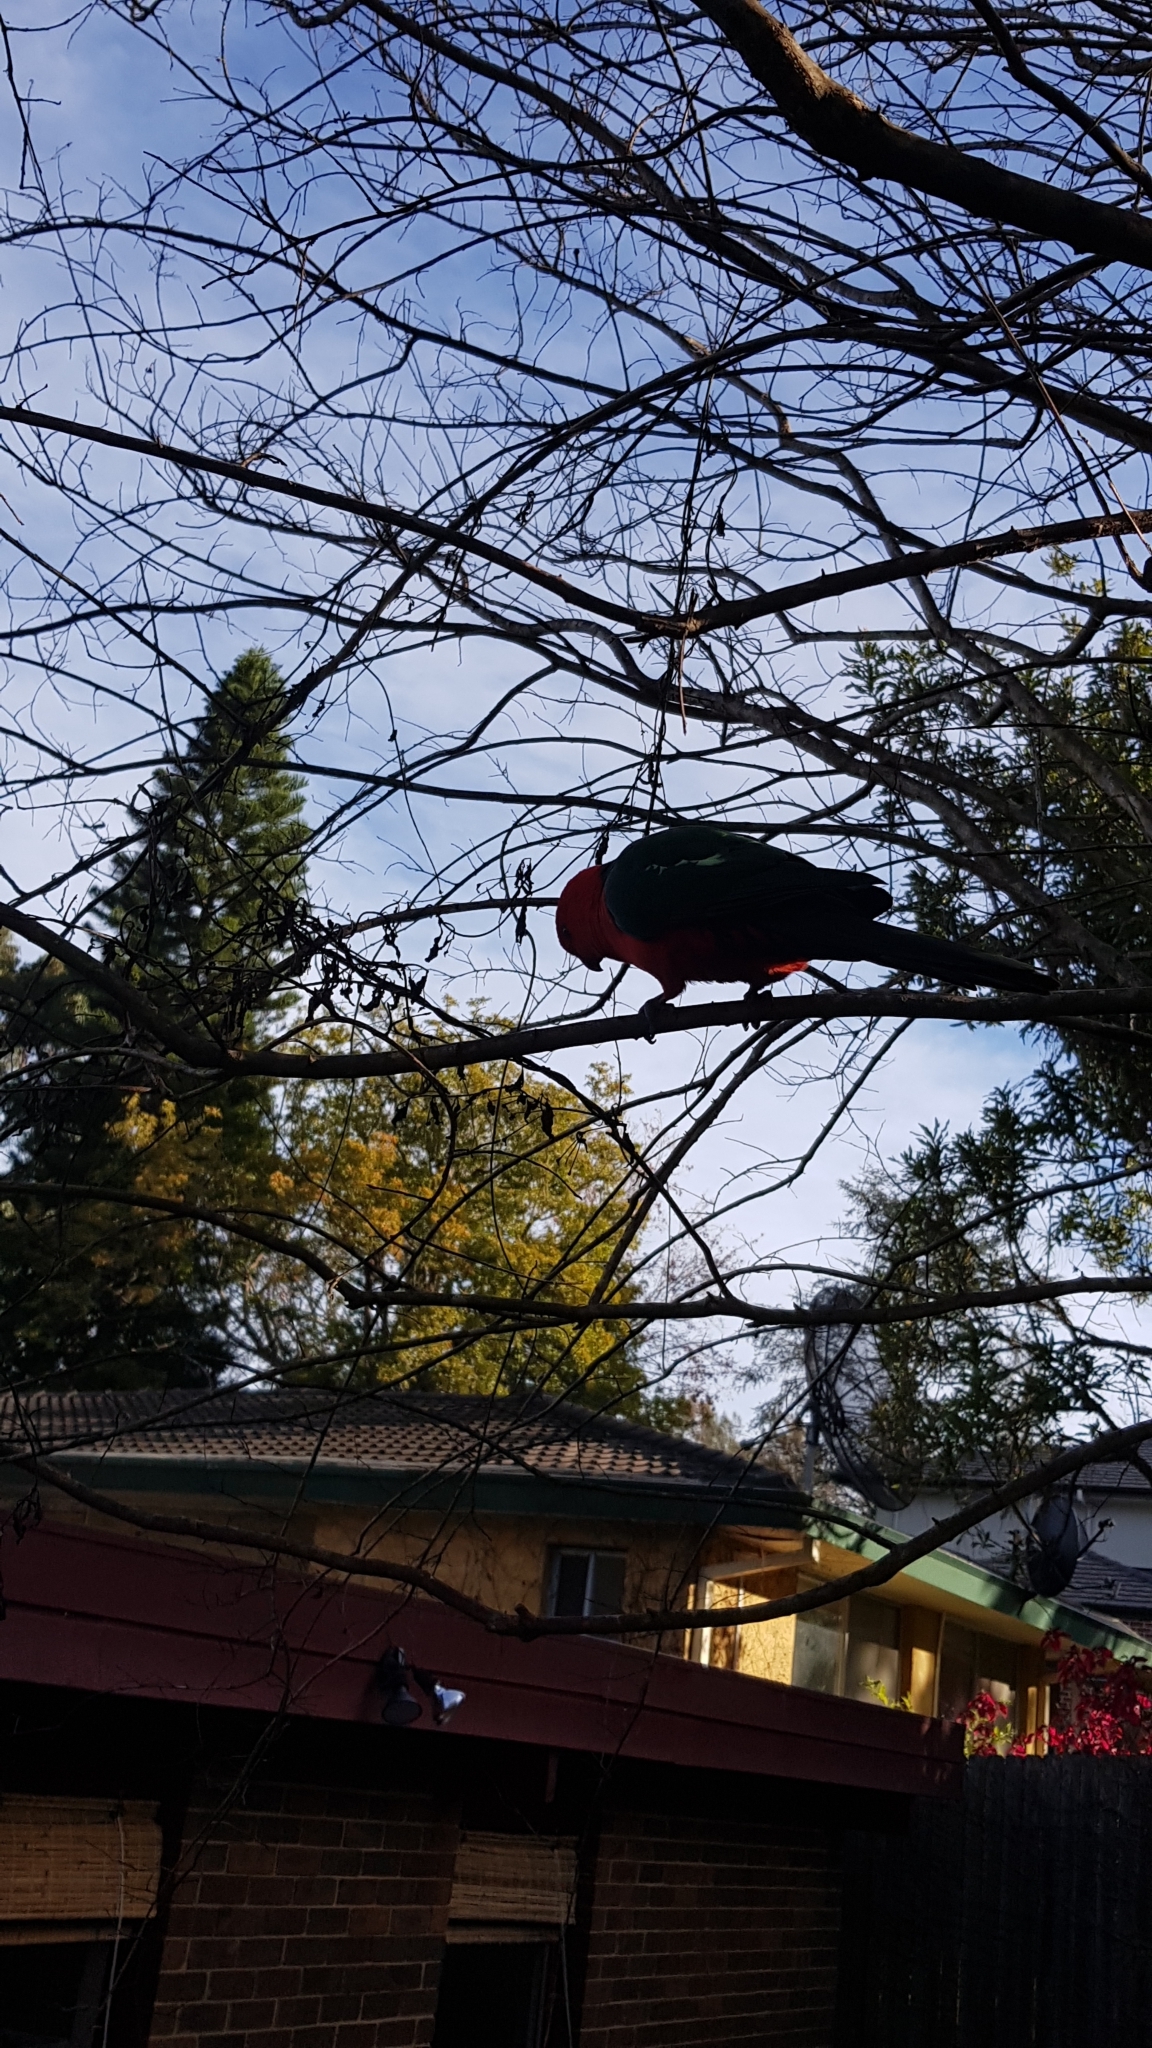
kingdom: Animalia
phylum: Chordata
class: Aves
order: Psittaciformes
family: Psittacidae
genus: Alisterus
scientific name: Alisterus scapularis
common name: Australian king parrot
